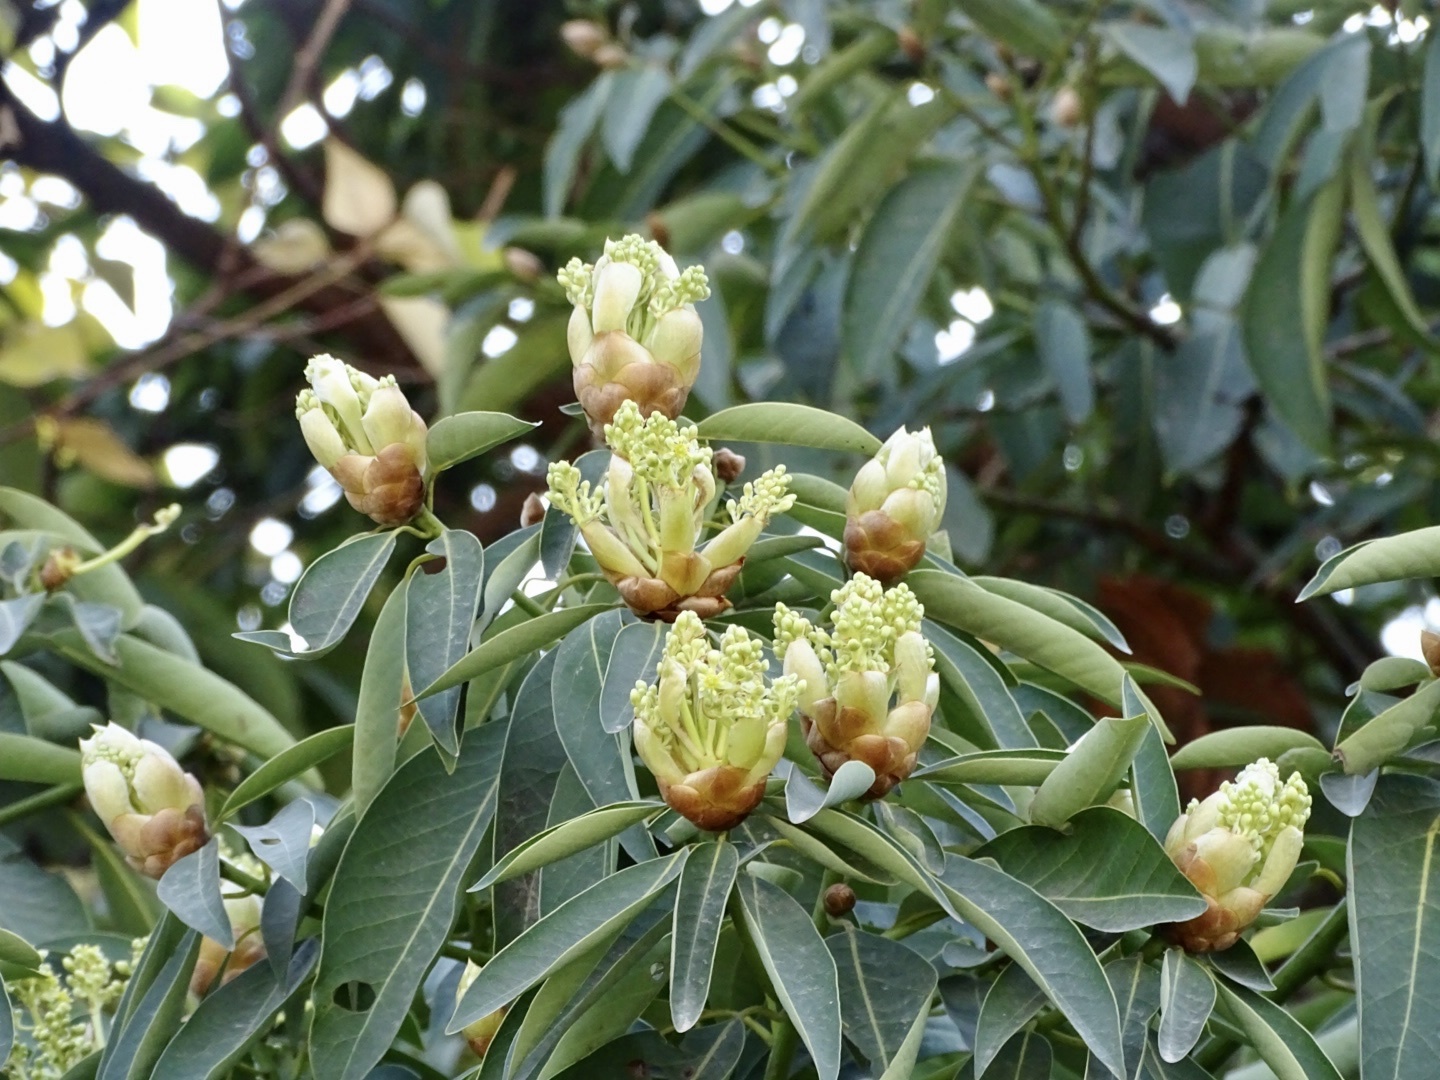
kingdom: Plantae
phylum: Tracheophyta
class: Magnoliopsida
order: Laurales
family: Lauraceae
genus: Machilus
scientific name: Machilus pauhoi
